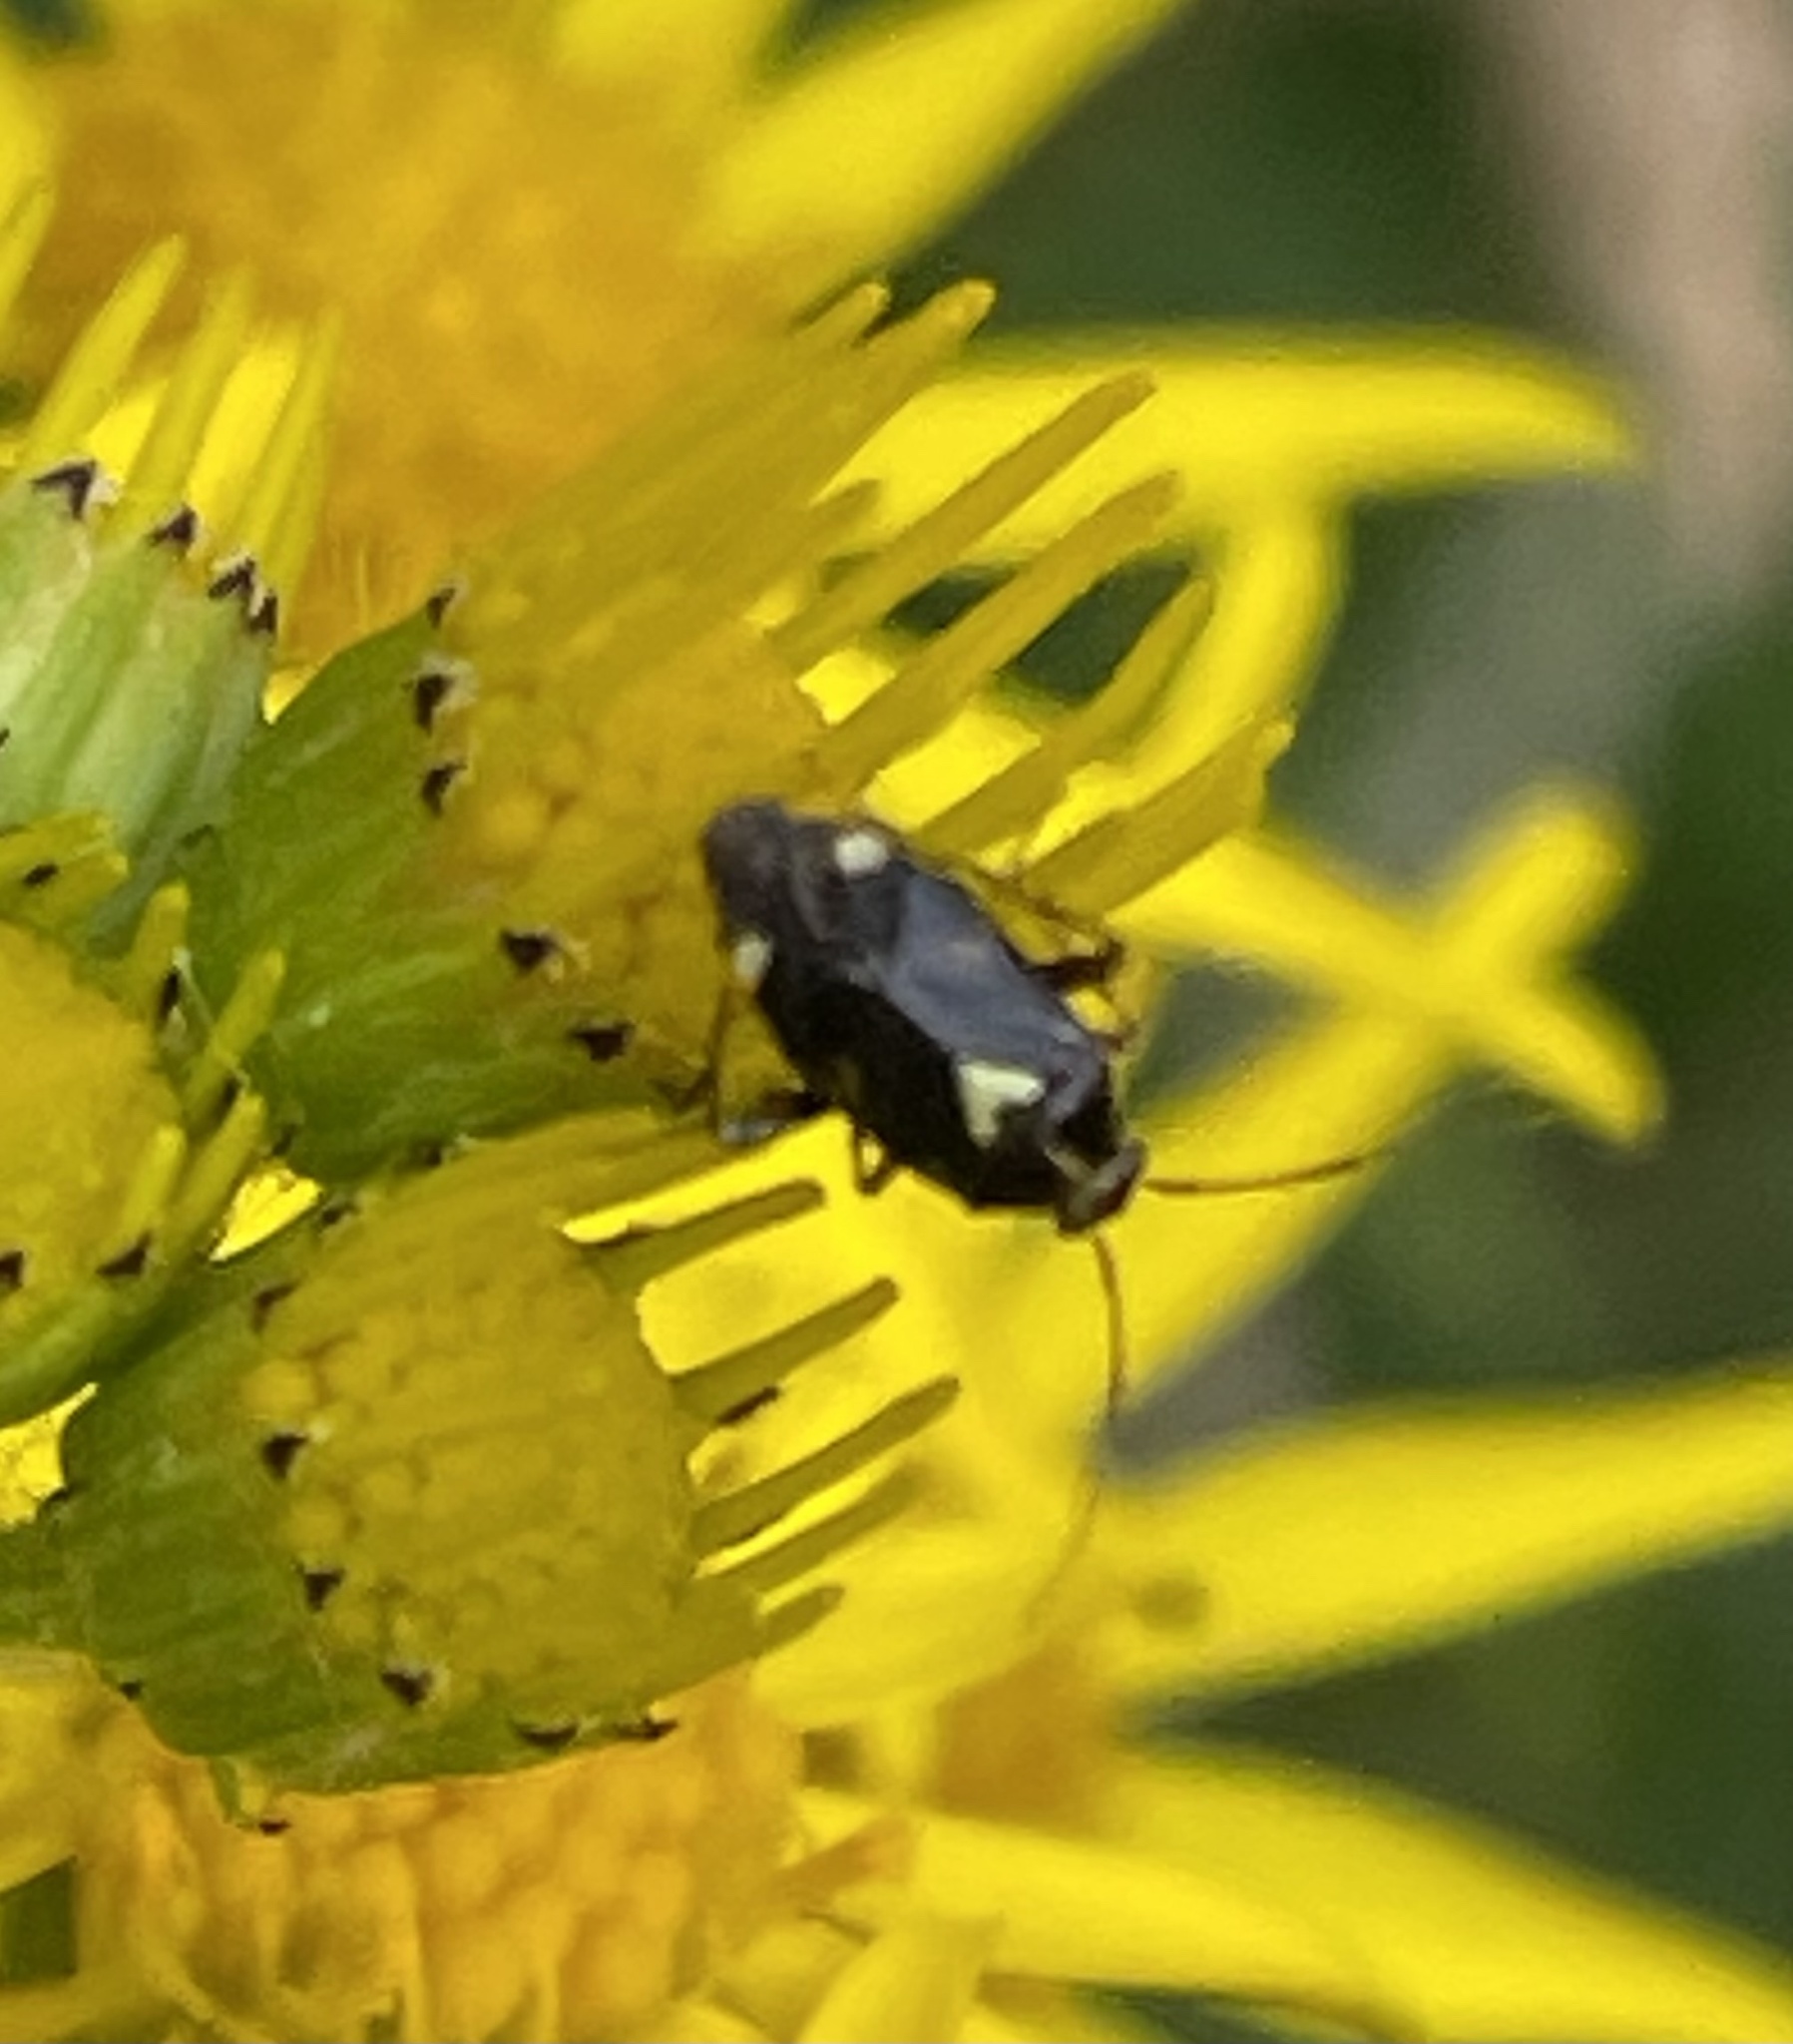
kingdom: Animalia
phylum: Arthropoda
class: Insecta
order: Hemiptera
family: Miridae
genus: Liocoris
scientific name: Liocoris tripustulatus
